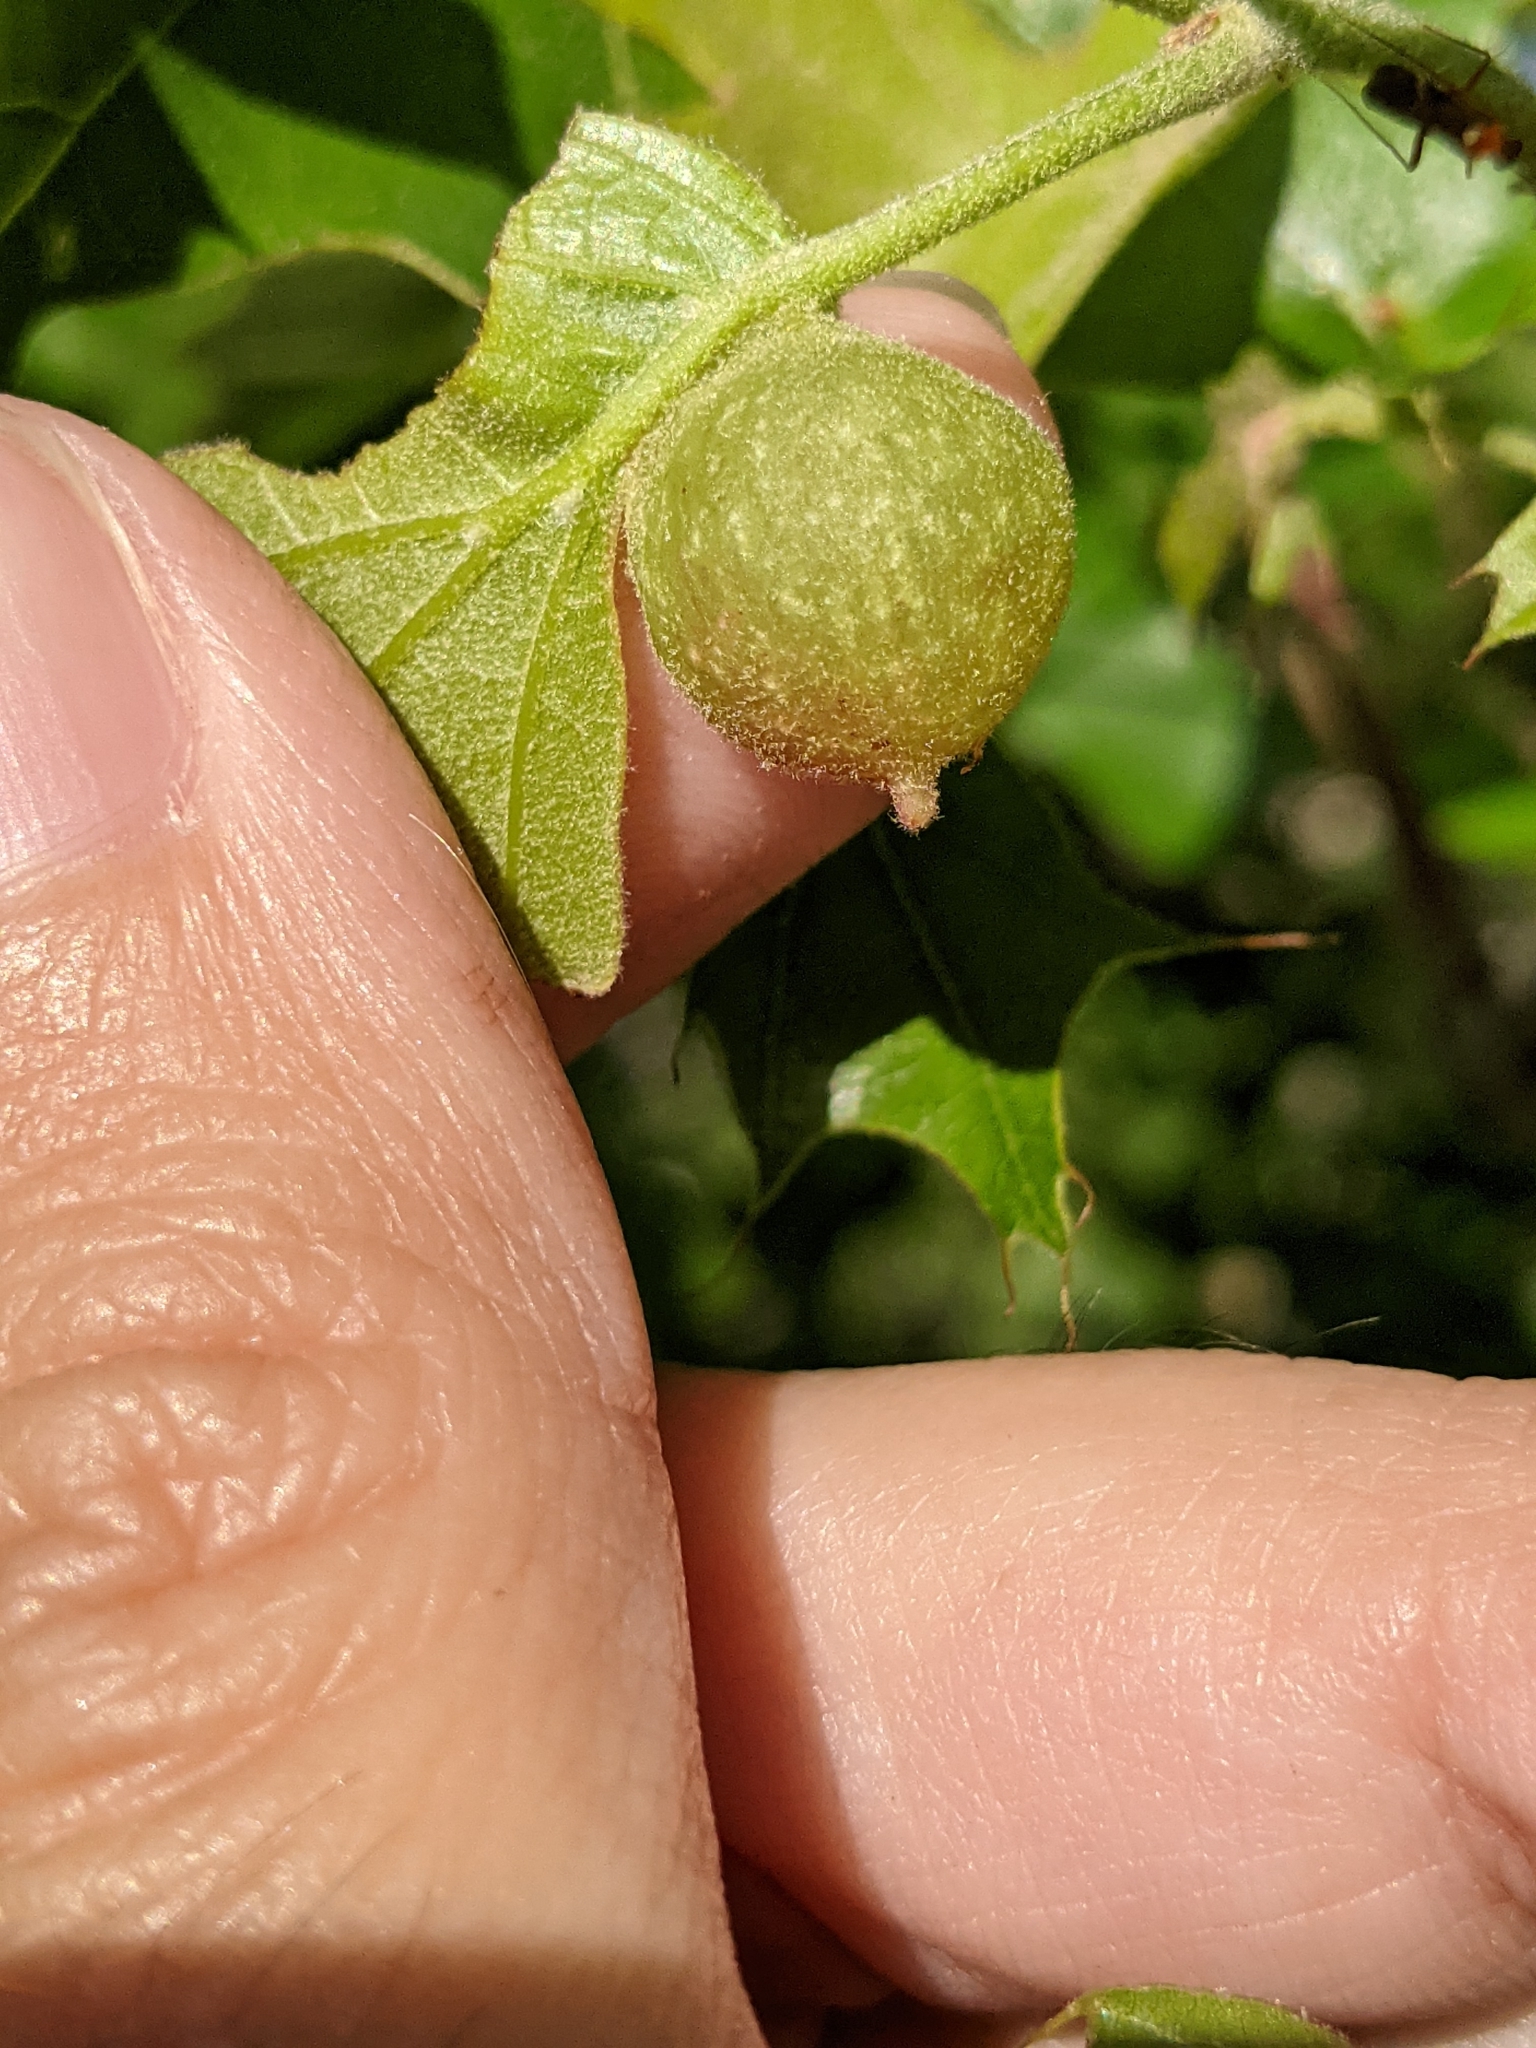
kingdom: Animalia
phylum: Arthropoda
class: Insecta
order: Hymenoptera
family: Cynipidae
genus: Dryocosmus
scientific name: Dryocosmus quercuspalustris
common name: Succulent oak gall wasp
